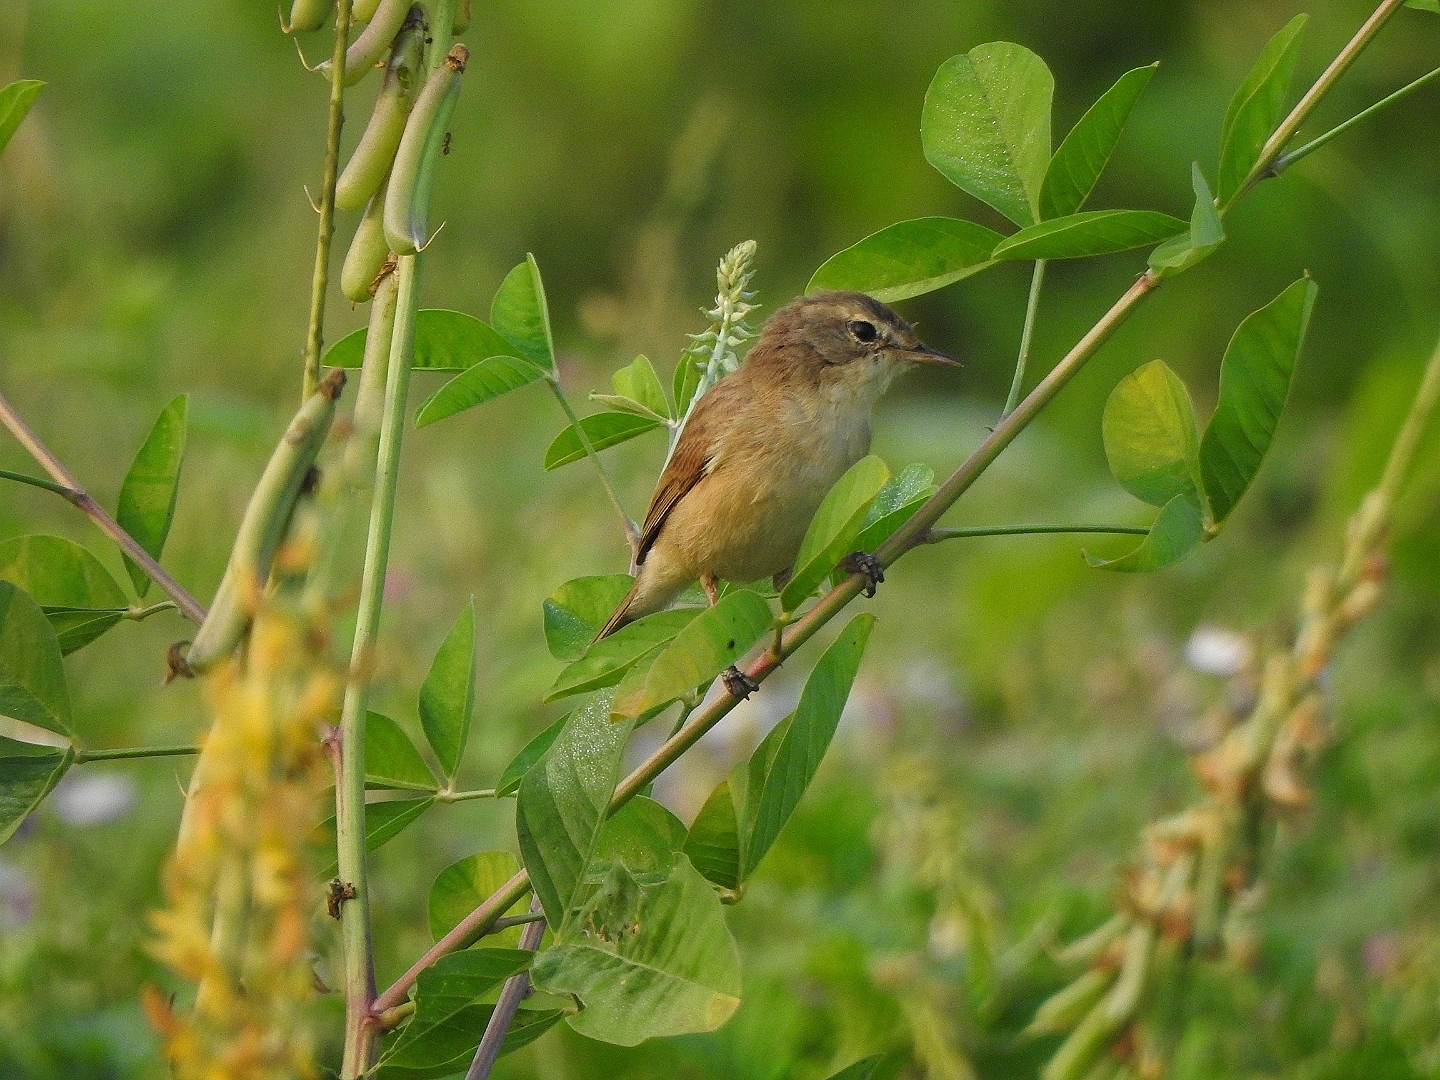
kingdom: Animalia
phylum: Chordata
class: Aves
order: Passeriformes
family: Acrocephalidae
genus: Iduna
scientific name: Iduna caligata
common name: Booted warbler
